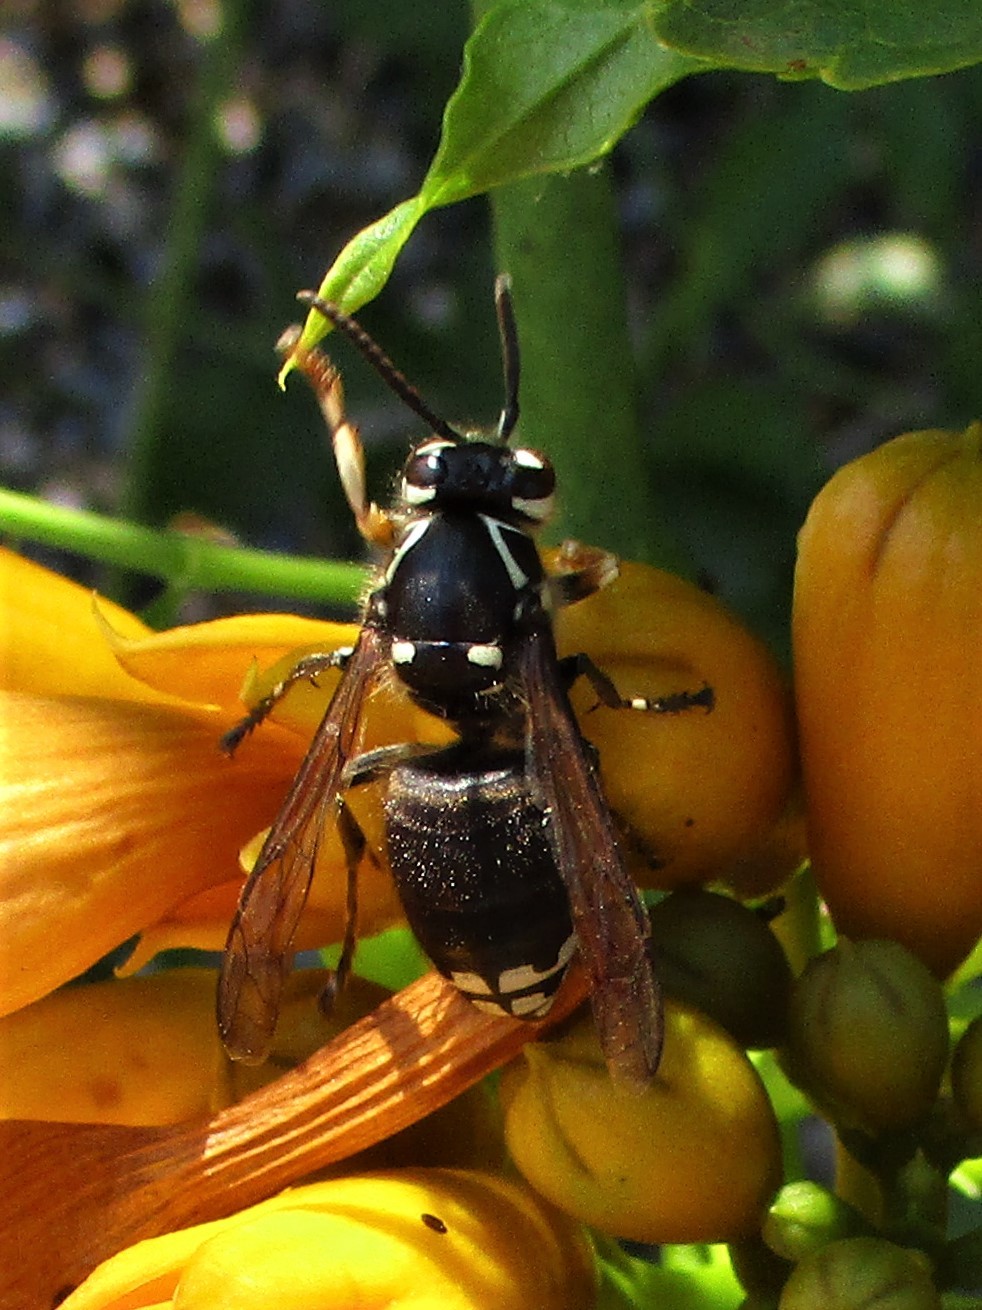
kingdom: Animalia
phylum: Arthropoda
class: Insecta
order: Hymenoptera
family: Vespidae
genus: Dolichovespula
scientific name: Dolichovespula maculata
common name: Bald-faced hornet
